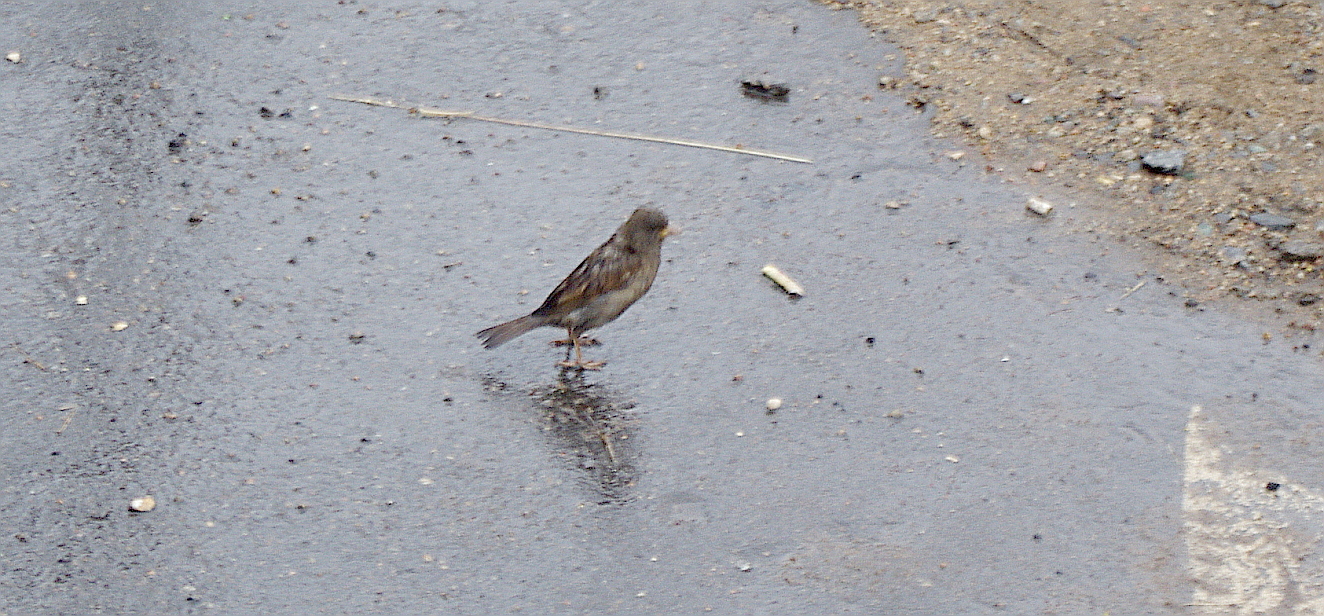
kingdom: Animalia
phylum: Chordata
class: Aves
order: Passeriformes
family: Passeridae
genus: Passer
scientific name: Passer domesticus
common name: House sparrow
